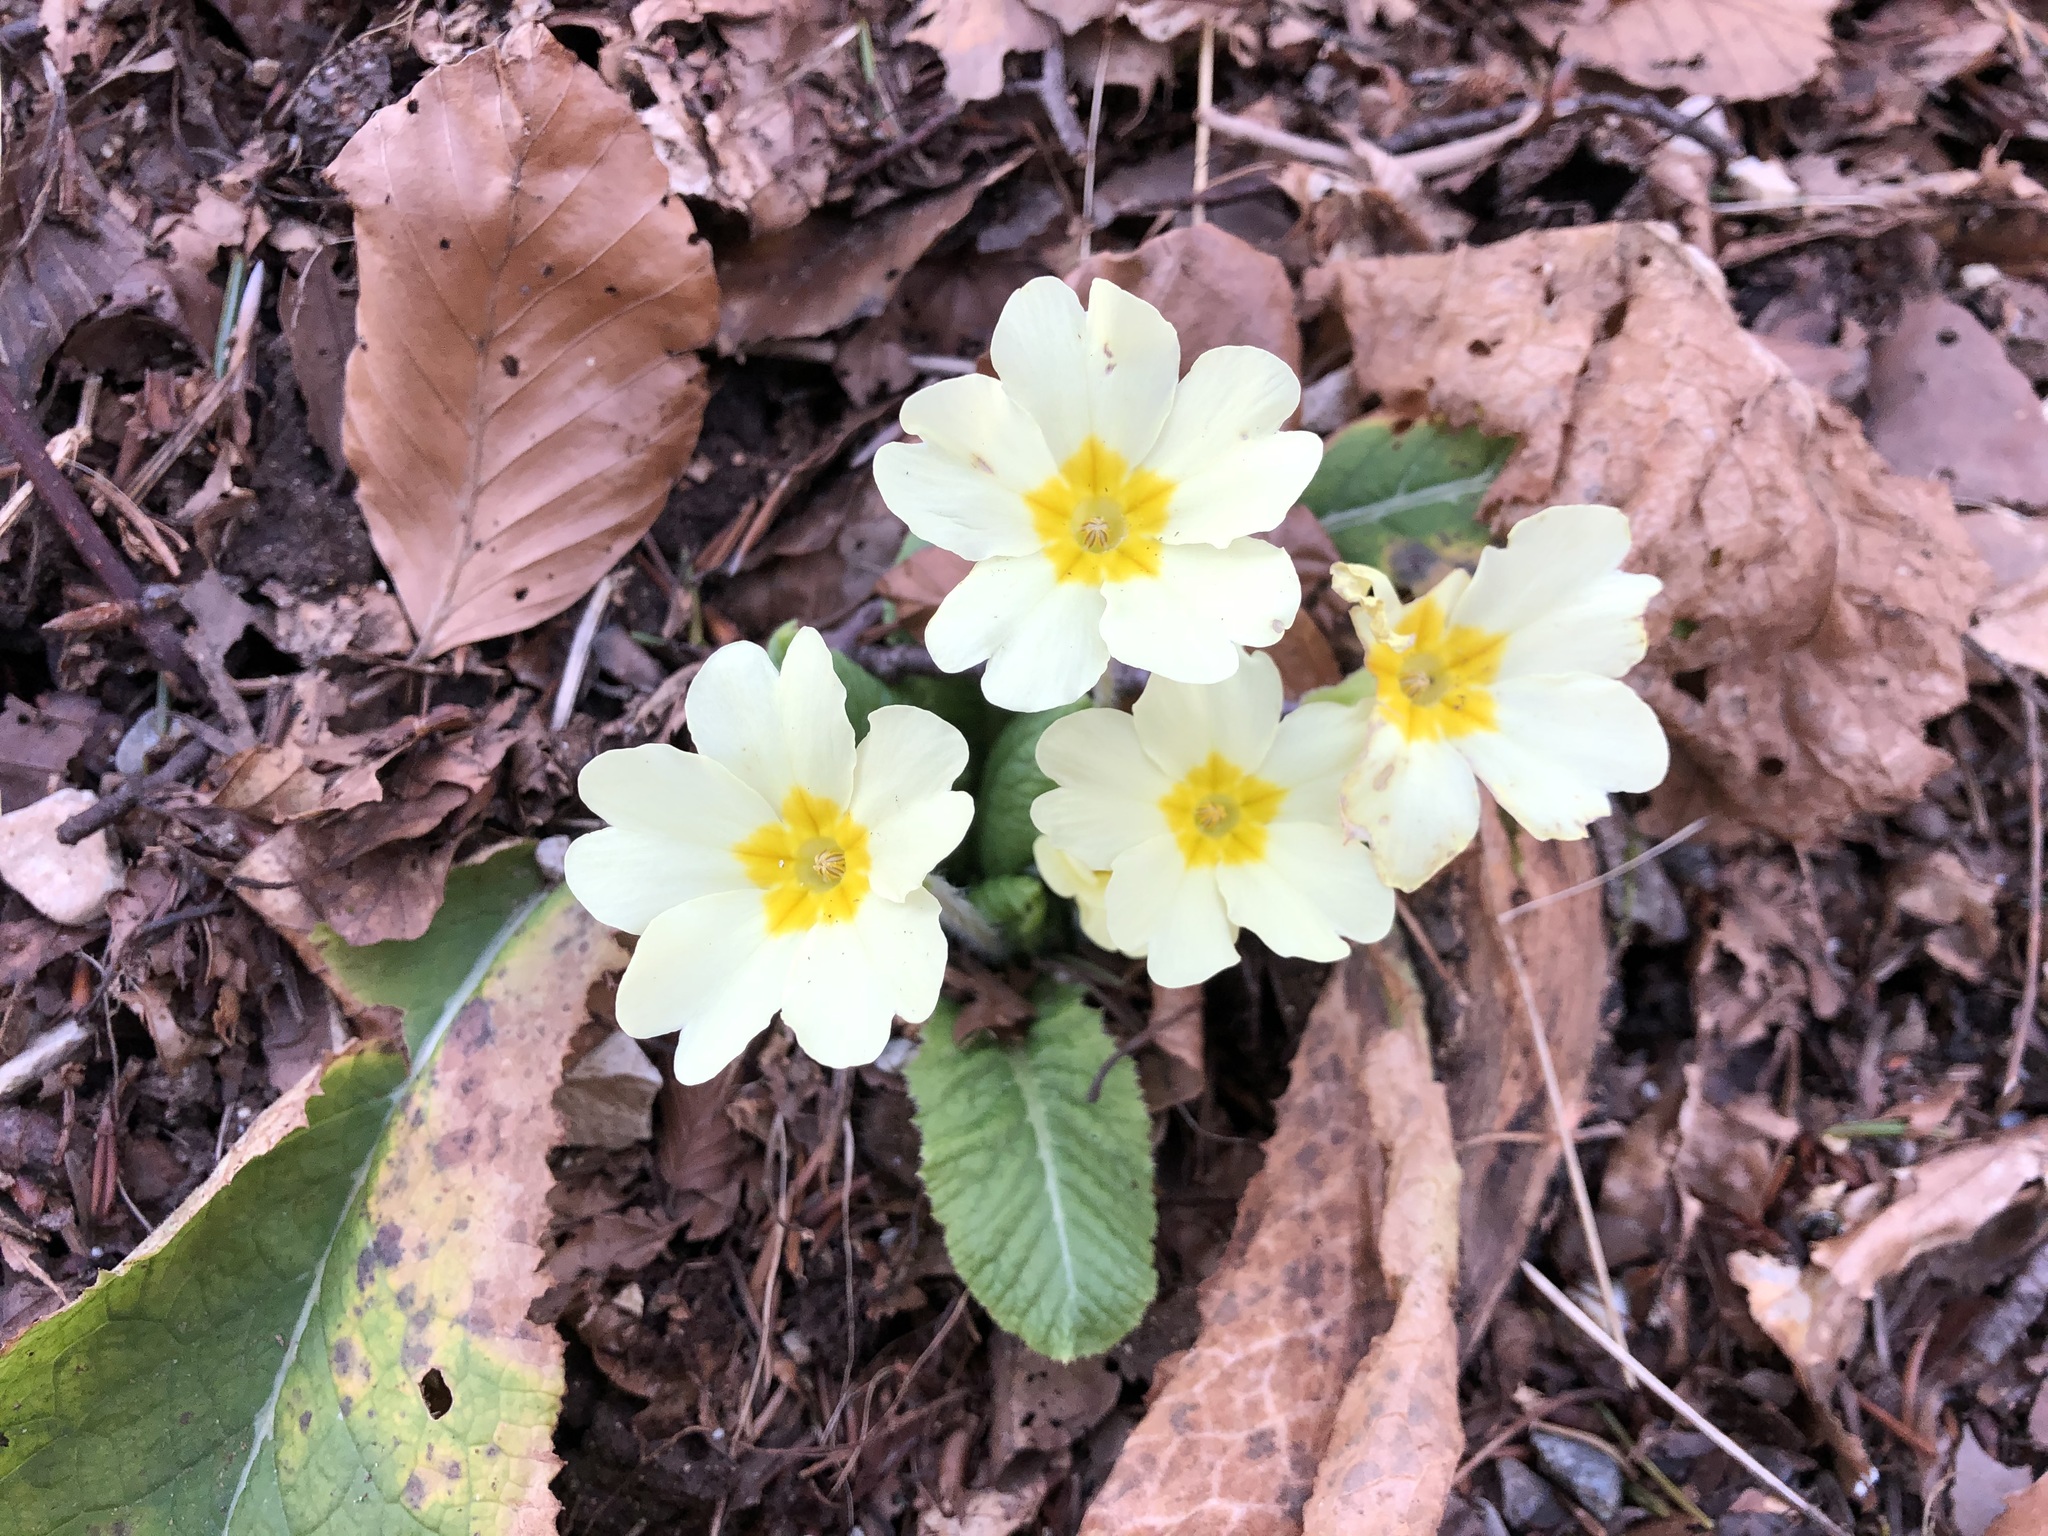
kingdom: Plantae
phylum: Tracheophyta
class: Magnoliopsida
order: Ericales
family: Primulaceae
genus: Primula
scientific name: Primula vulgaris
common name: Primrose
